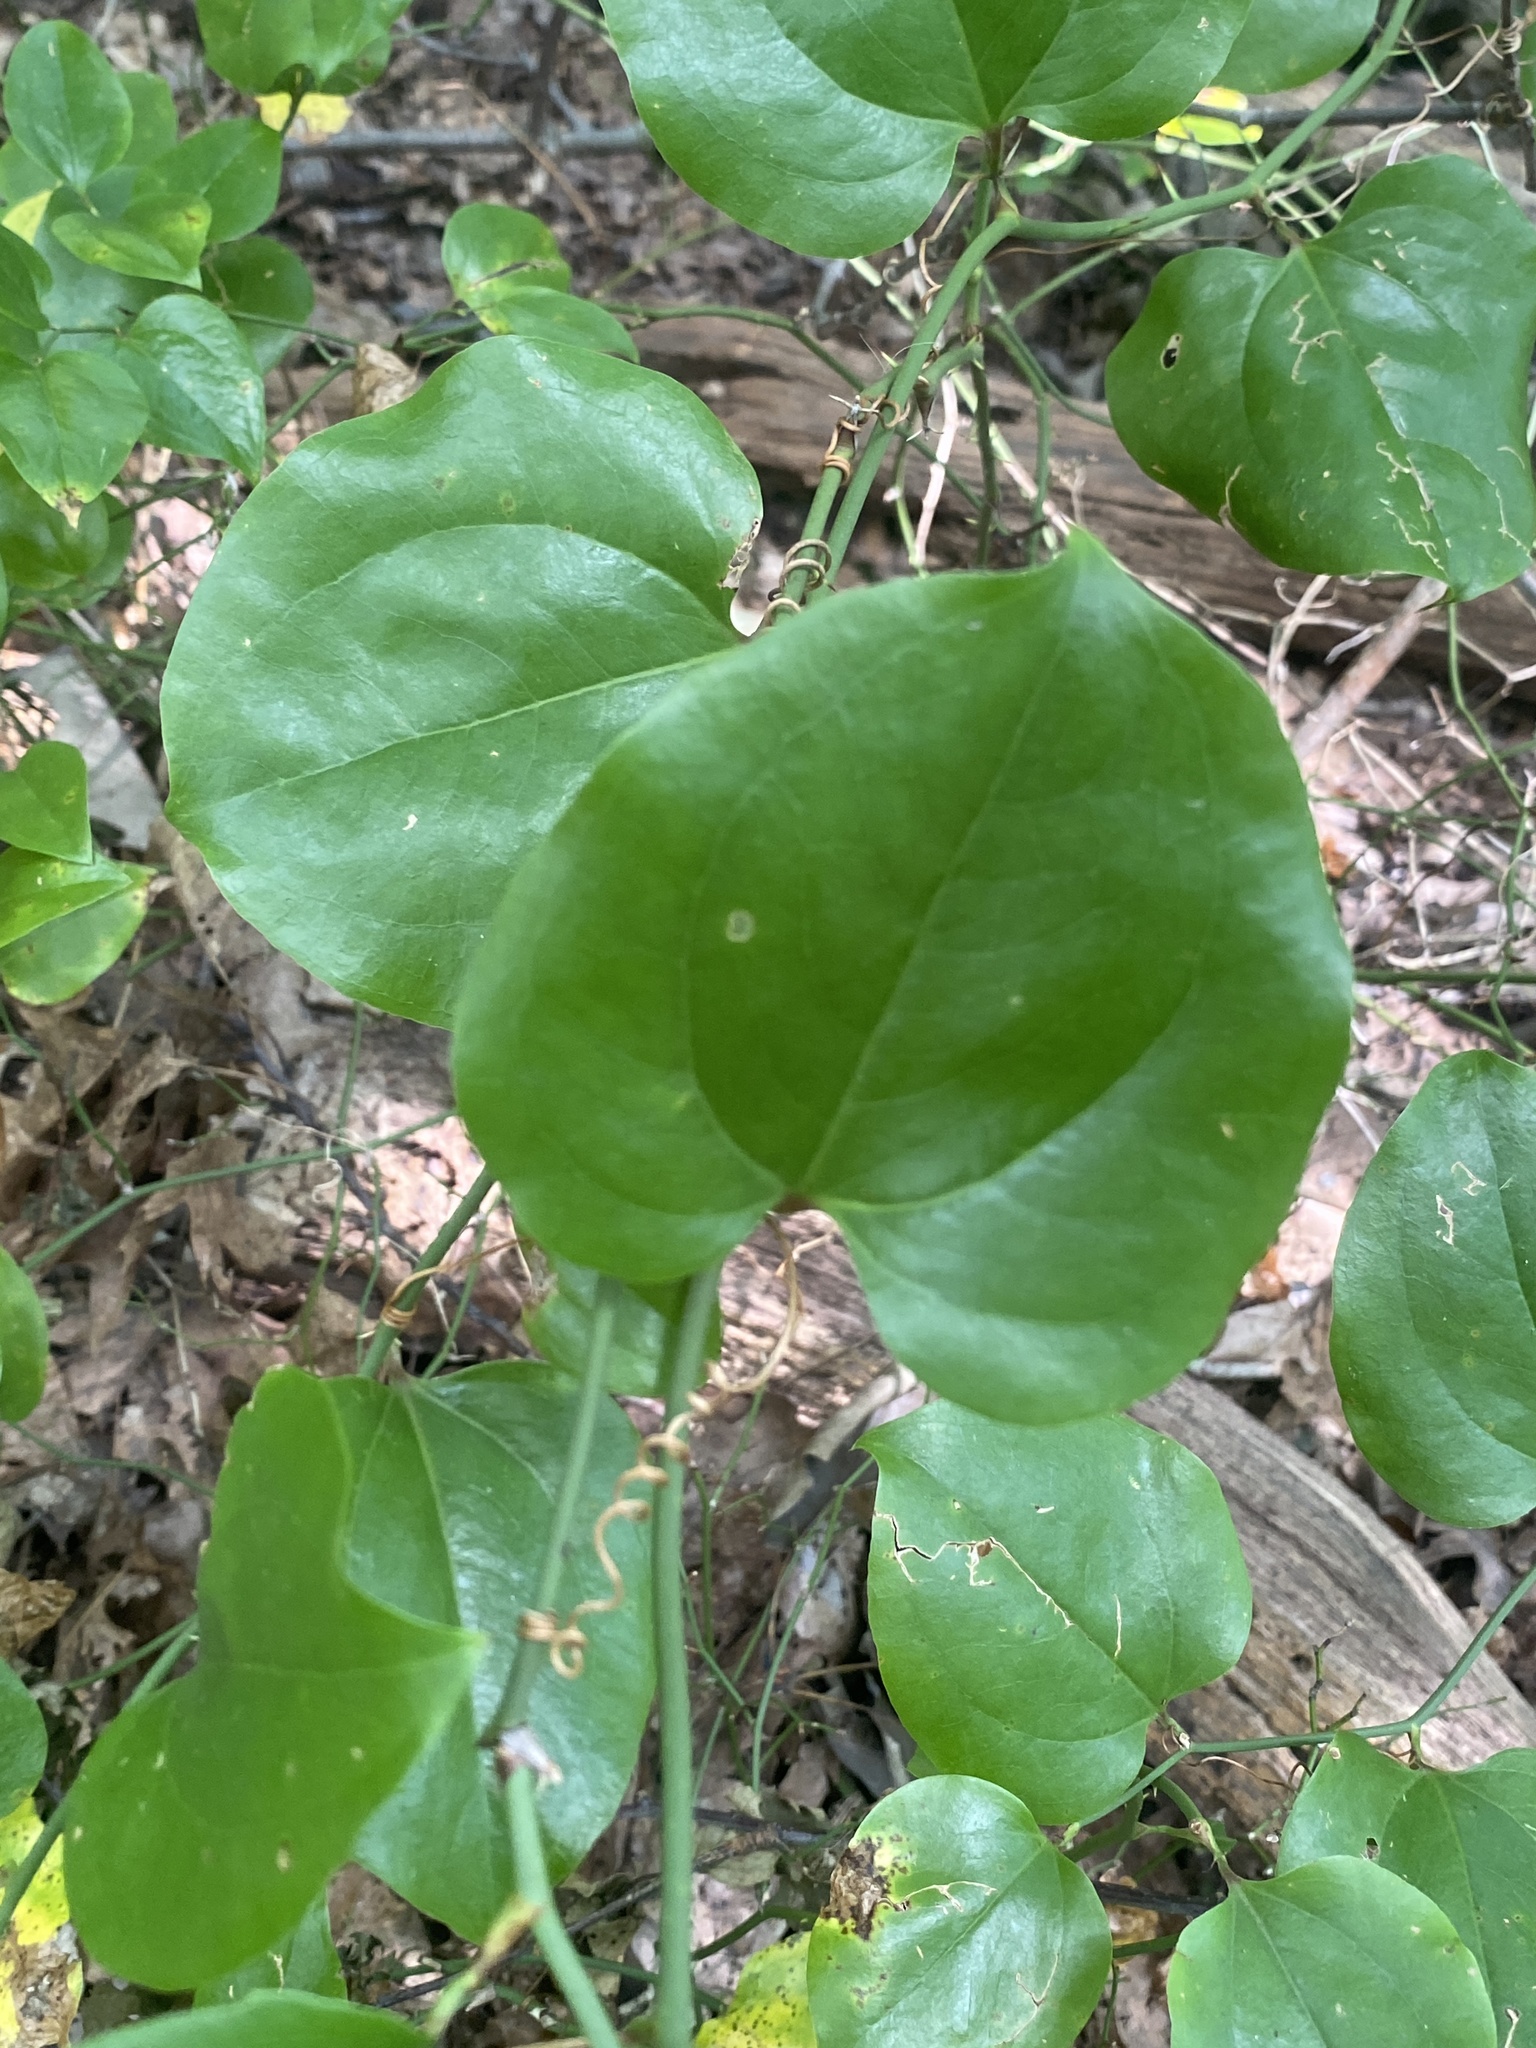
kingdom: Plantae
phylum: Tracheophyta
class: Liliopsida
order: Liliales
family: Smilacaceae
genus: Smilax
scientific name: Smilax rotundifolia
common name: Bullbriar
